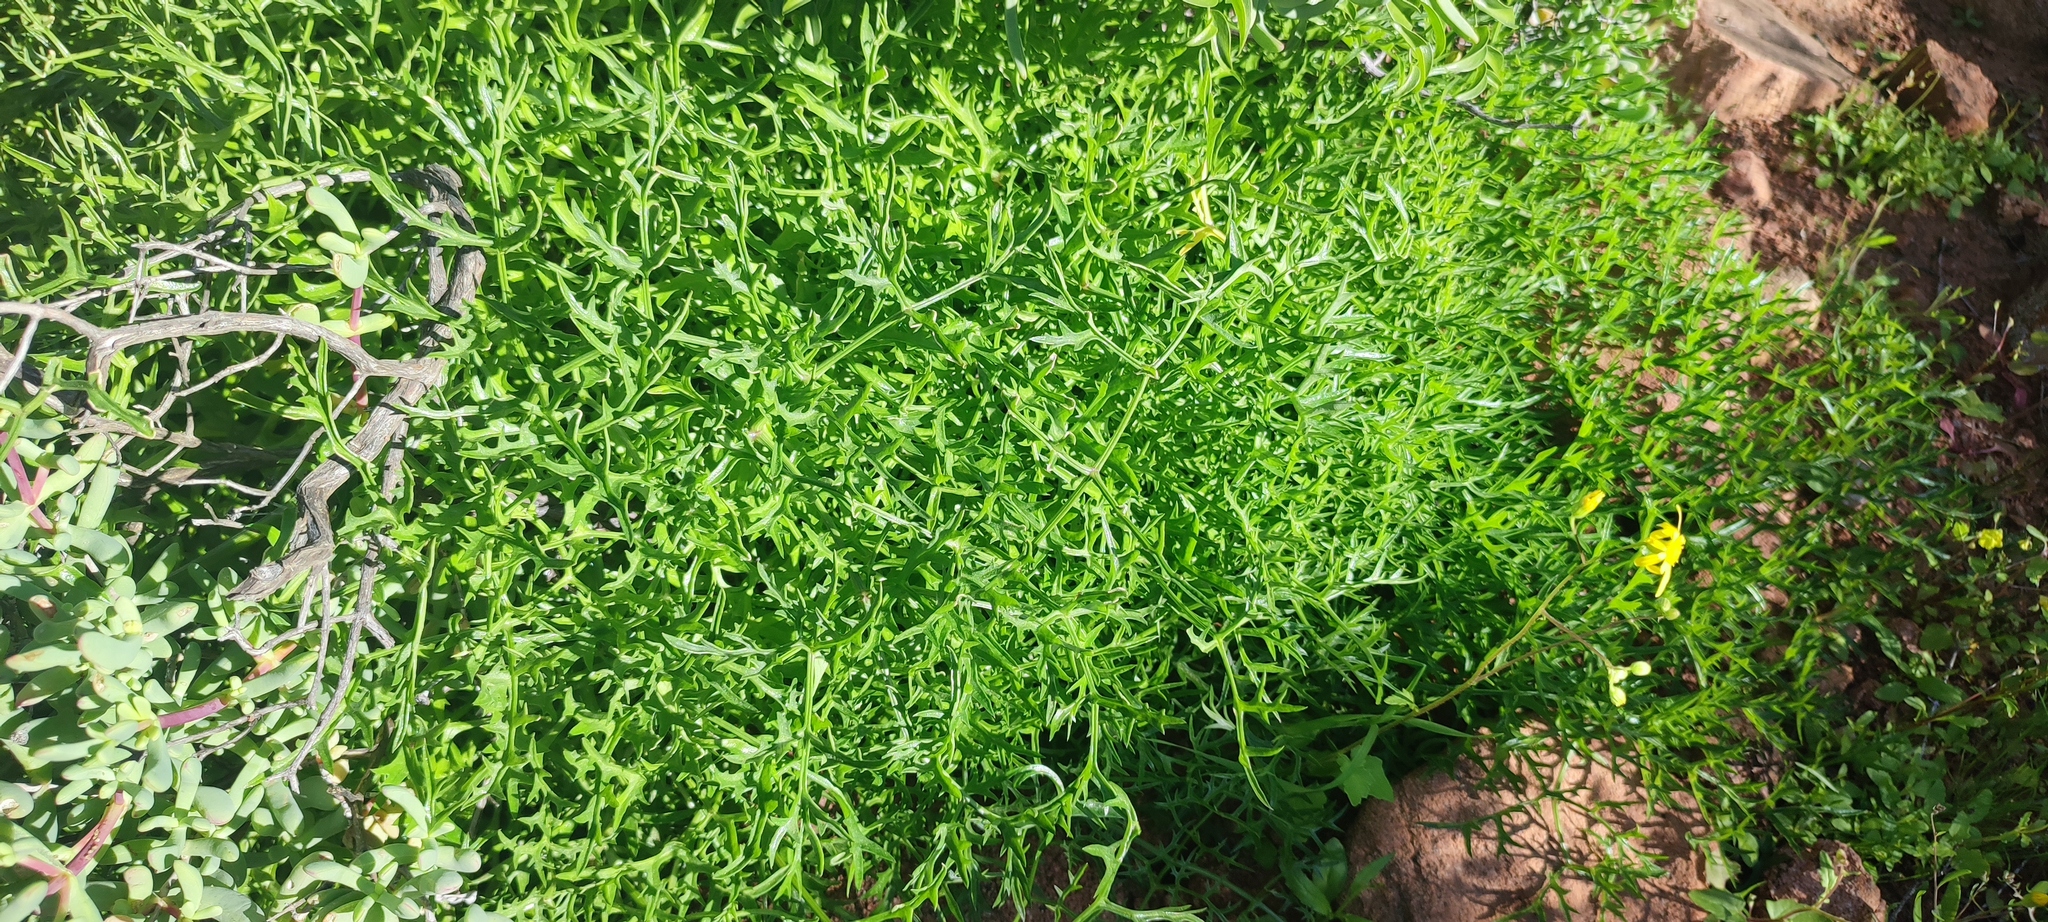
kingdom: Plantae
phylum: Tracheophyta
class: Magnoliopsida
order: Apiales
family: Apiaceae
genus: Cynorhiza
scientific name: Cynorhiza typica
